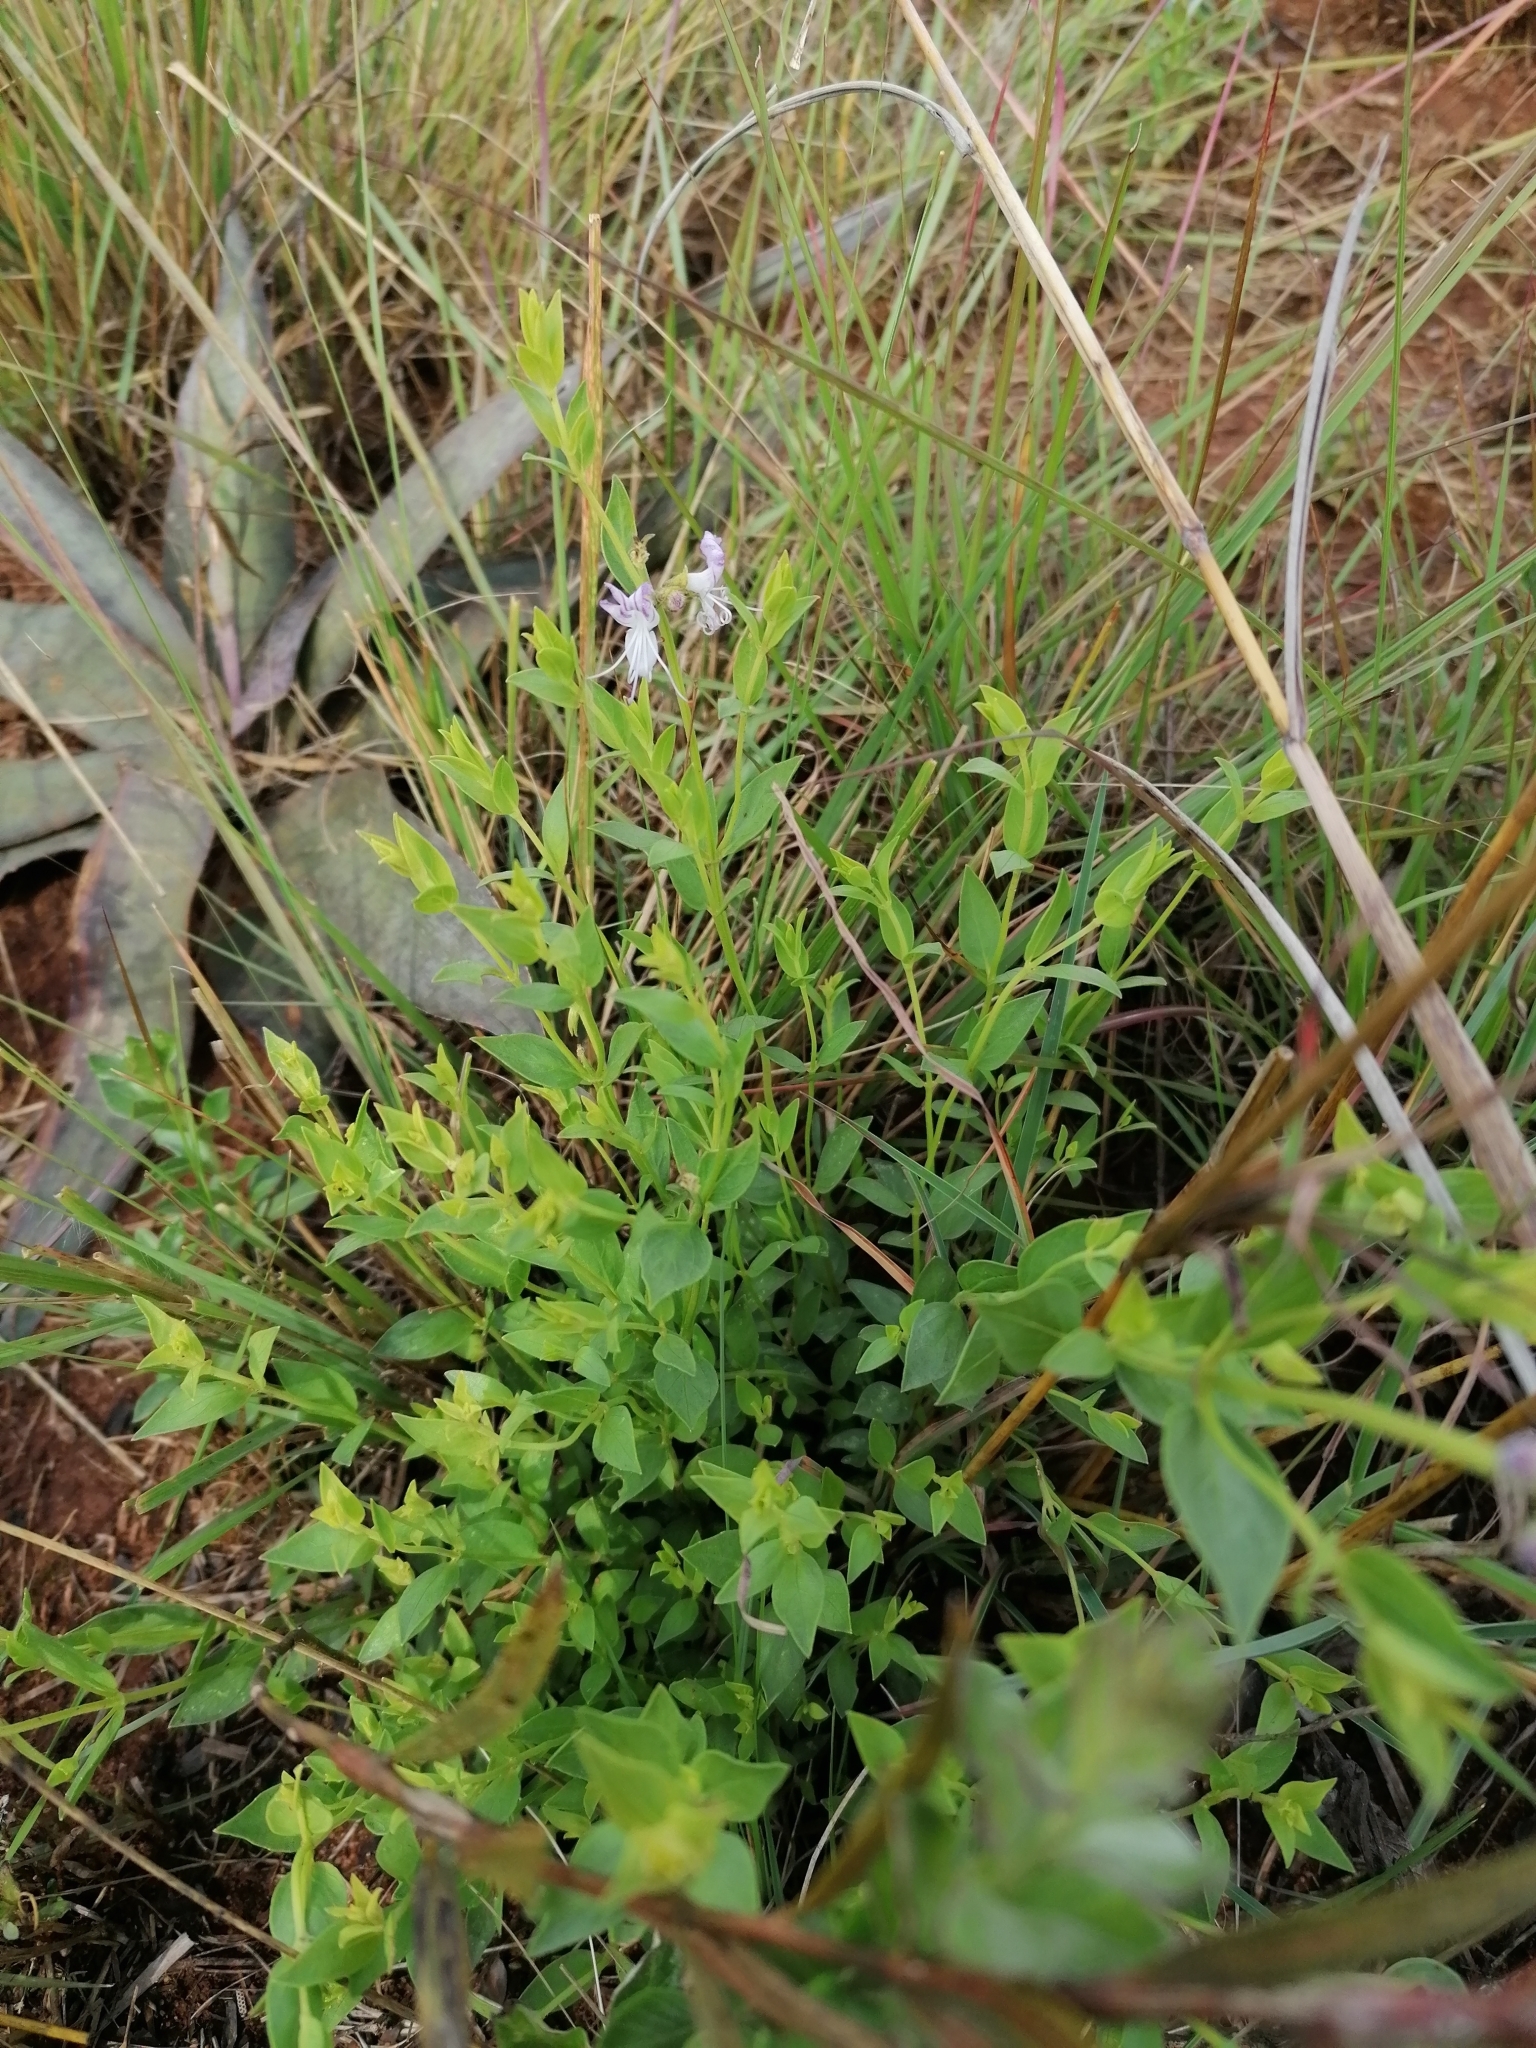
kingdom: Plantae
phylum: Tracheophyta
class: Magnoliopsida
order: Lamiales
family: Lamiaceae
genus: Ocimum
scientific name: Ocimum obovatum
